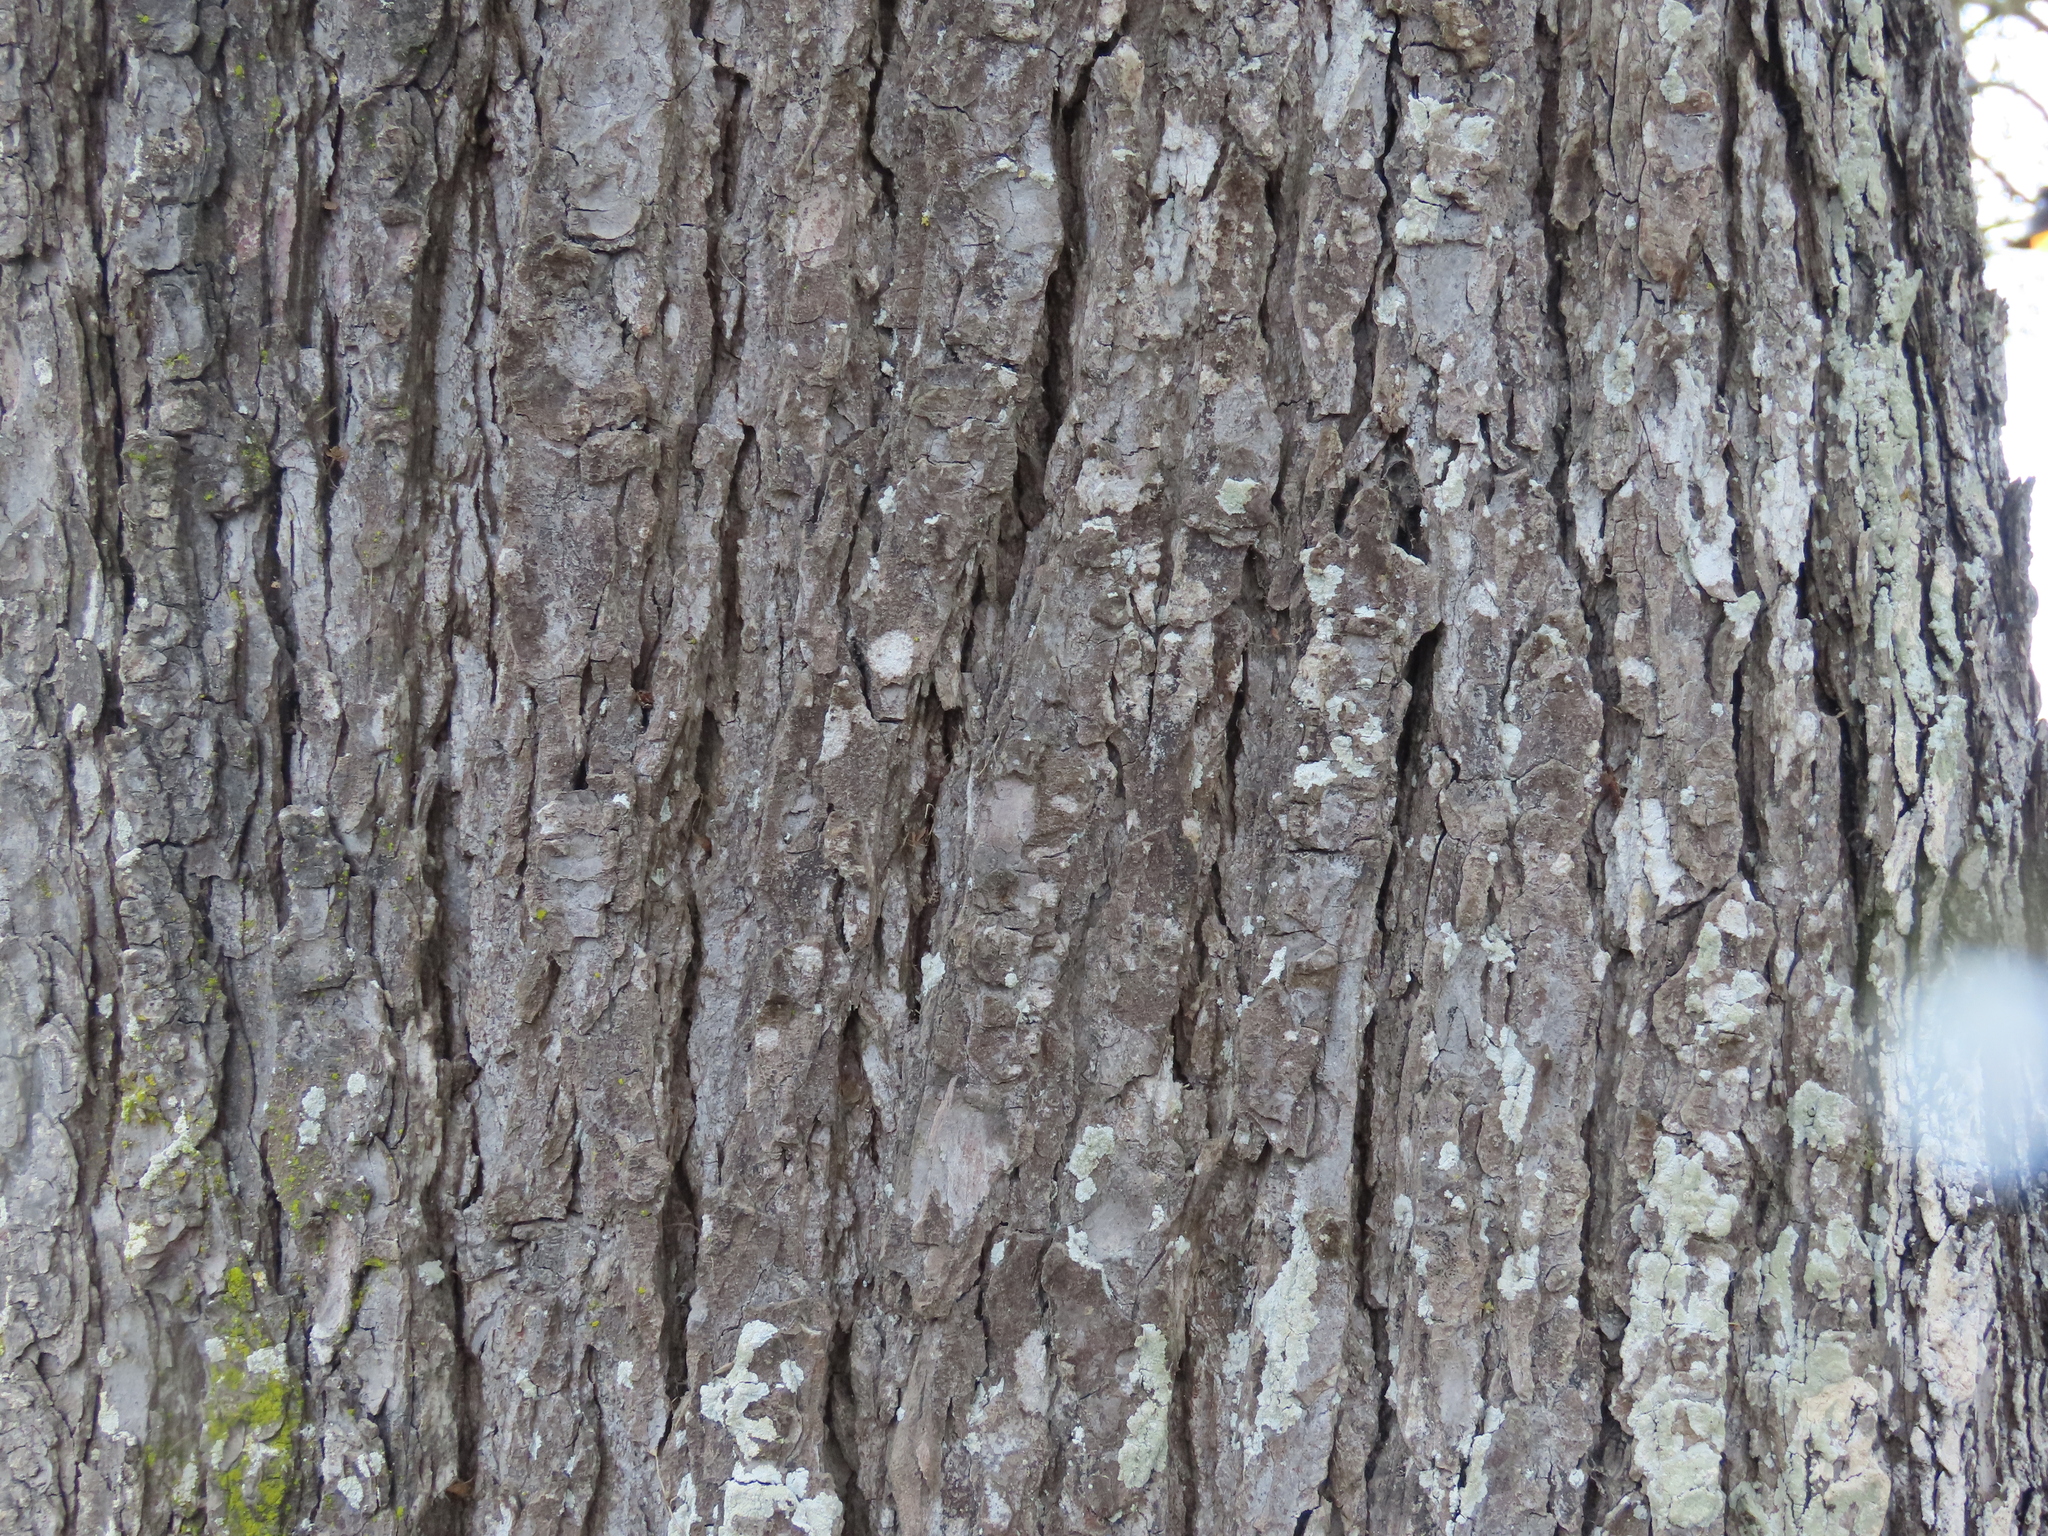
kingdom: Plantae
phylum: Tracheophyta
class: Magnoliopsida
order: Sapindales
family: Sapindaceae
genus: Aesculus
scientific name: Aesculus hippocastanum
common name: Horse-chestnut
